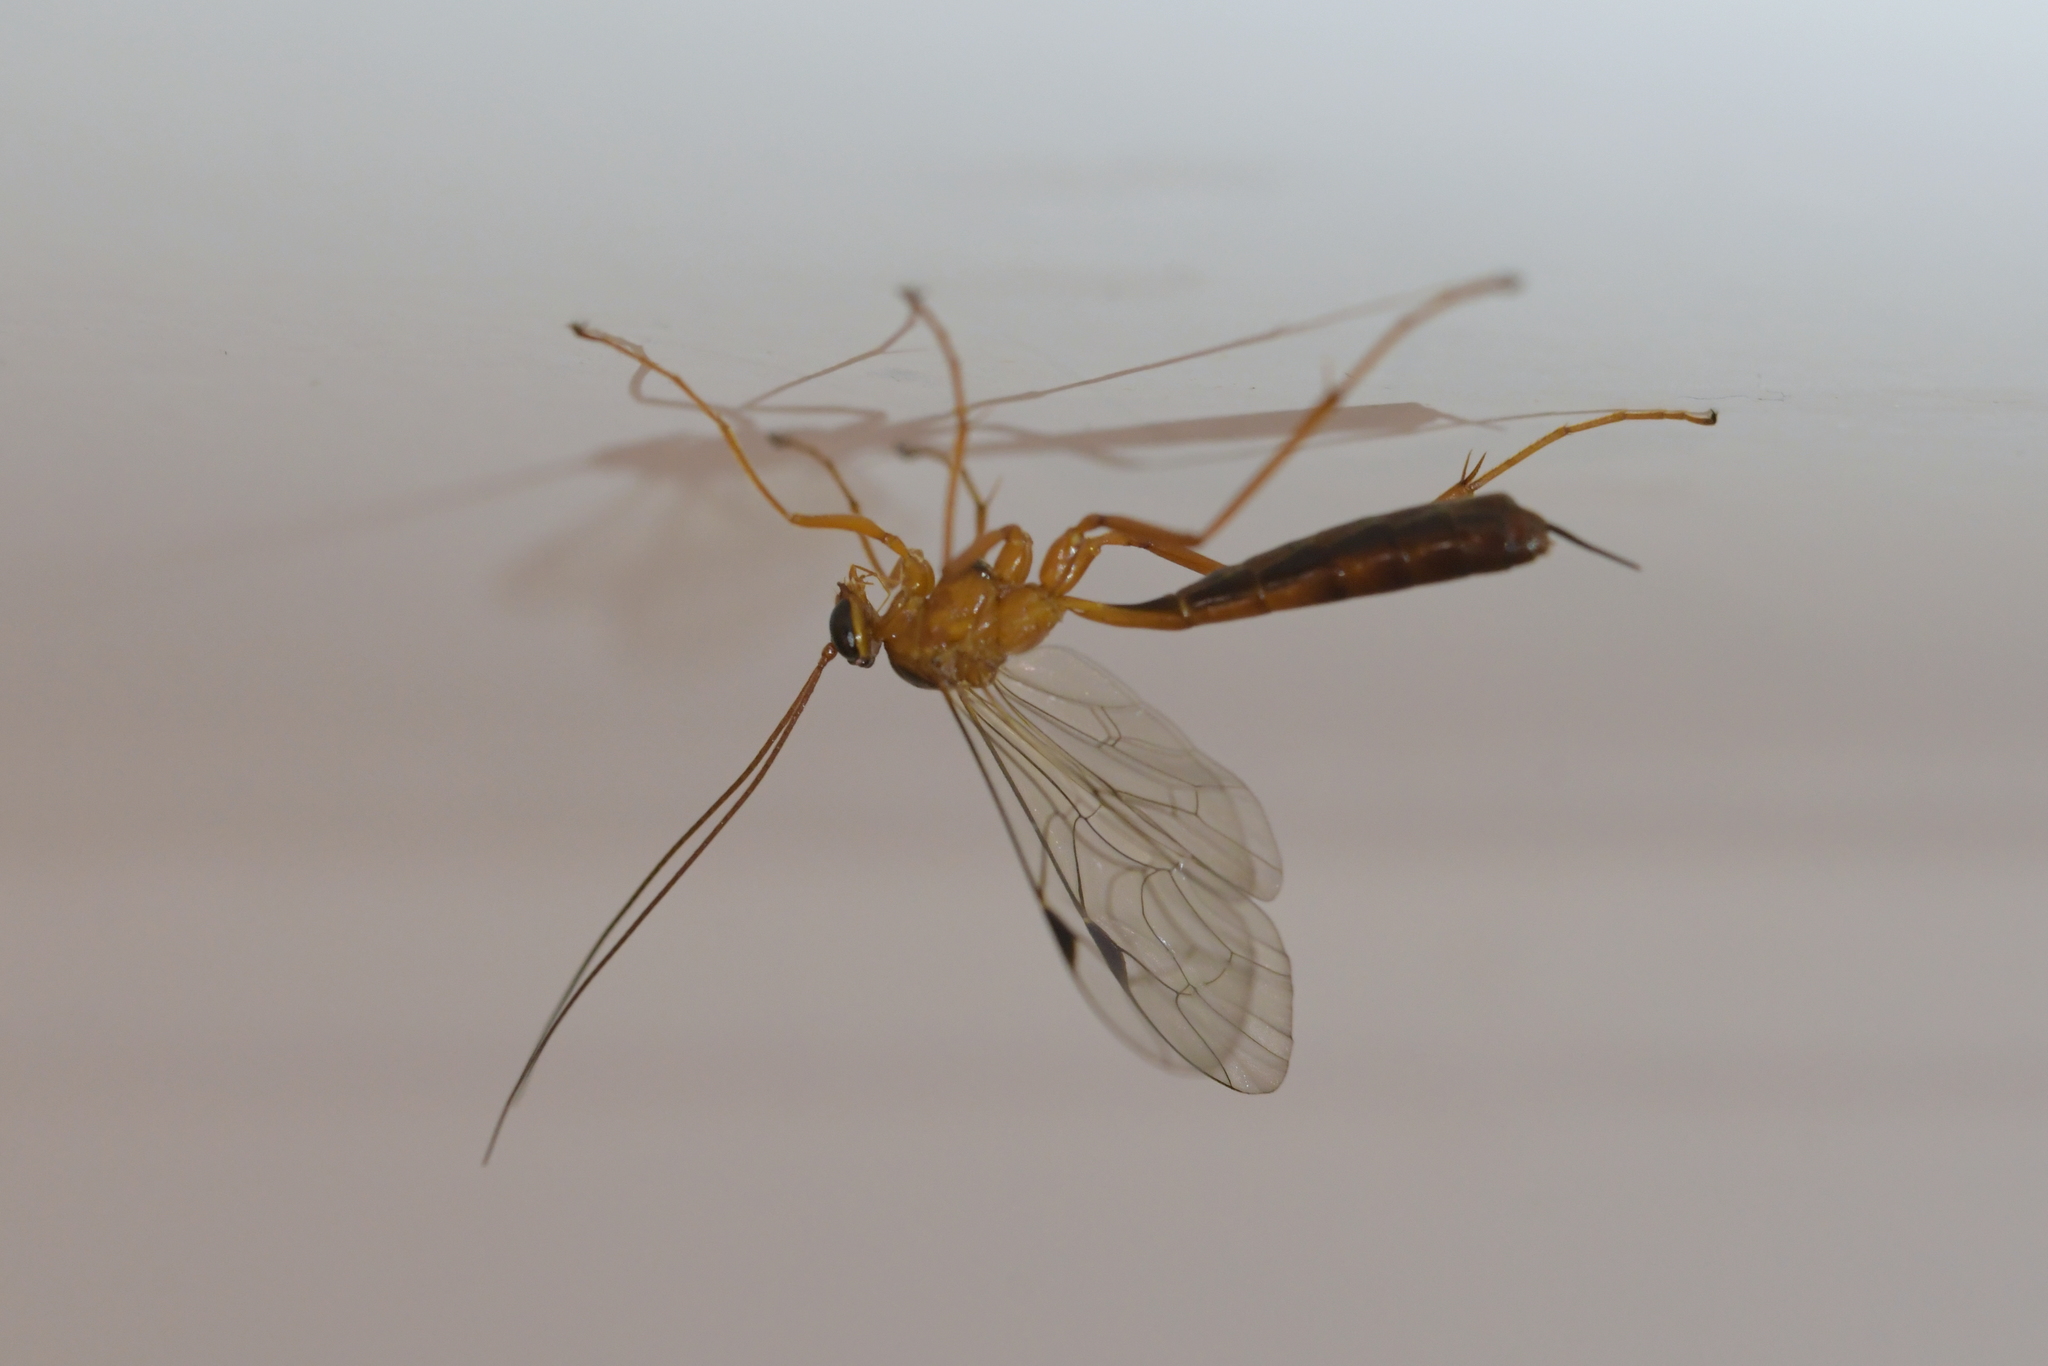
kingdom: Animalia
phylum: Arthropoda
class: Insecta
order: Hymenoptera
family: Ichneumonidae
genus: Netelia
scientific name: Netelia ephippiata
